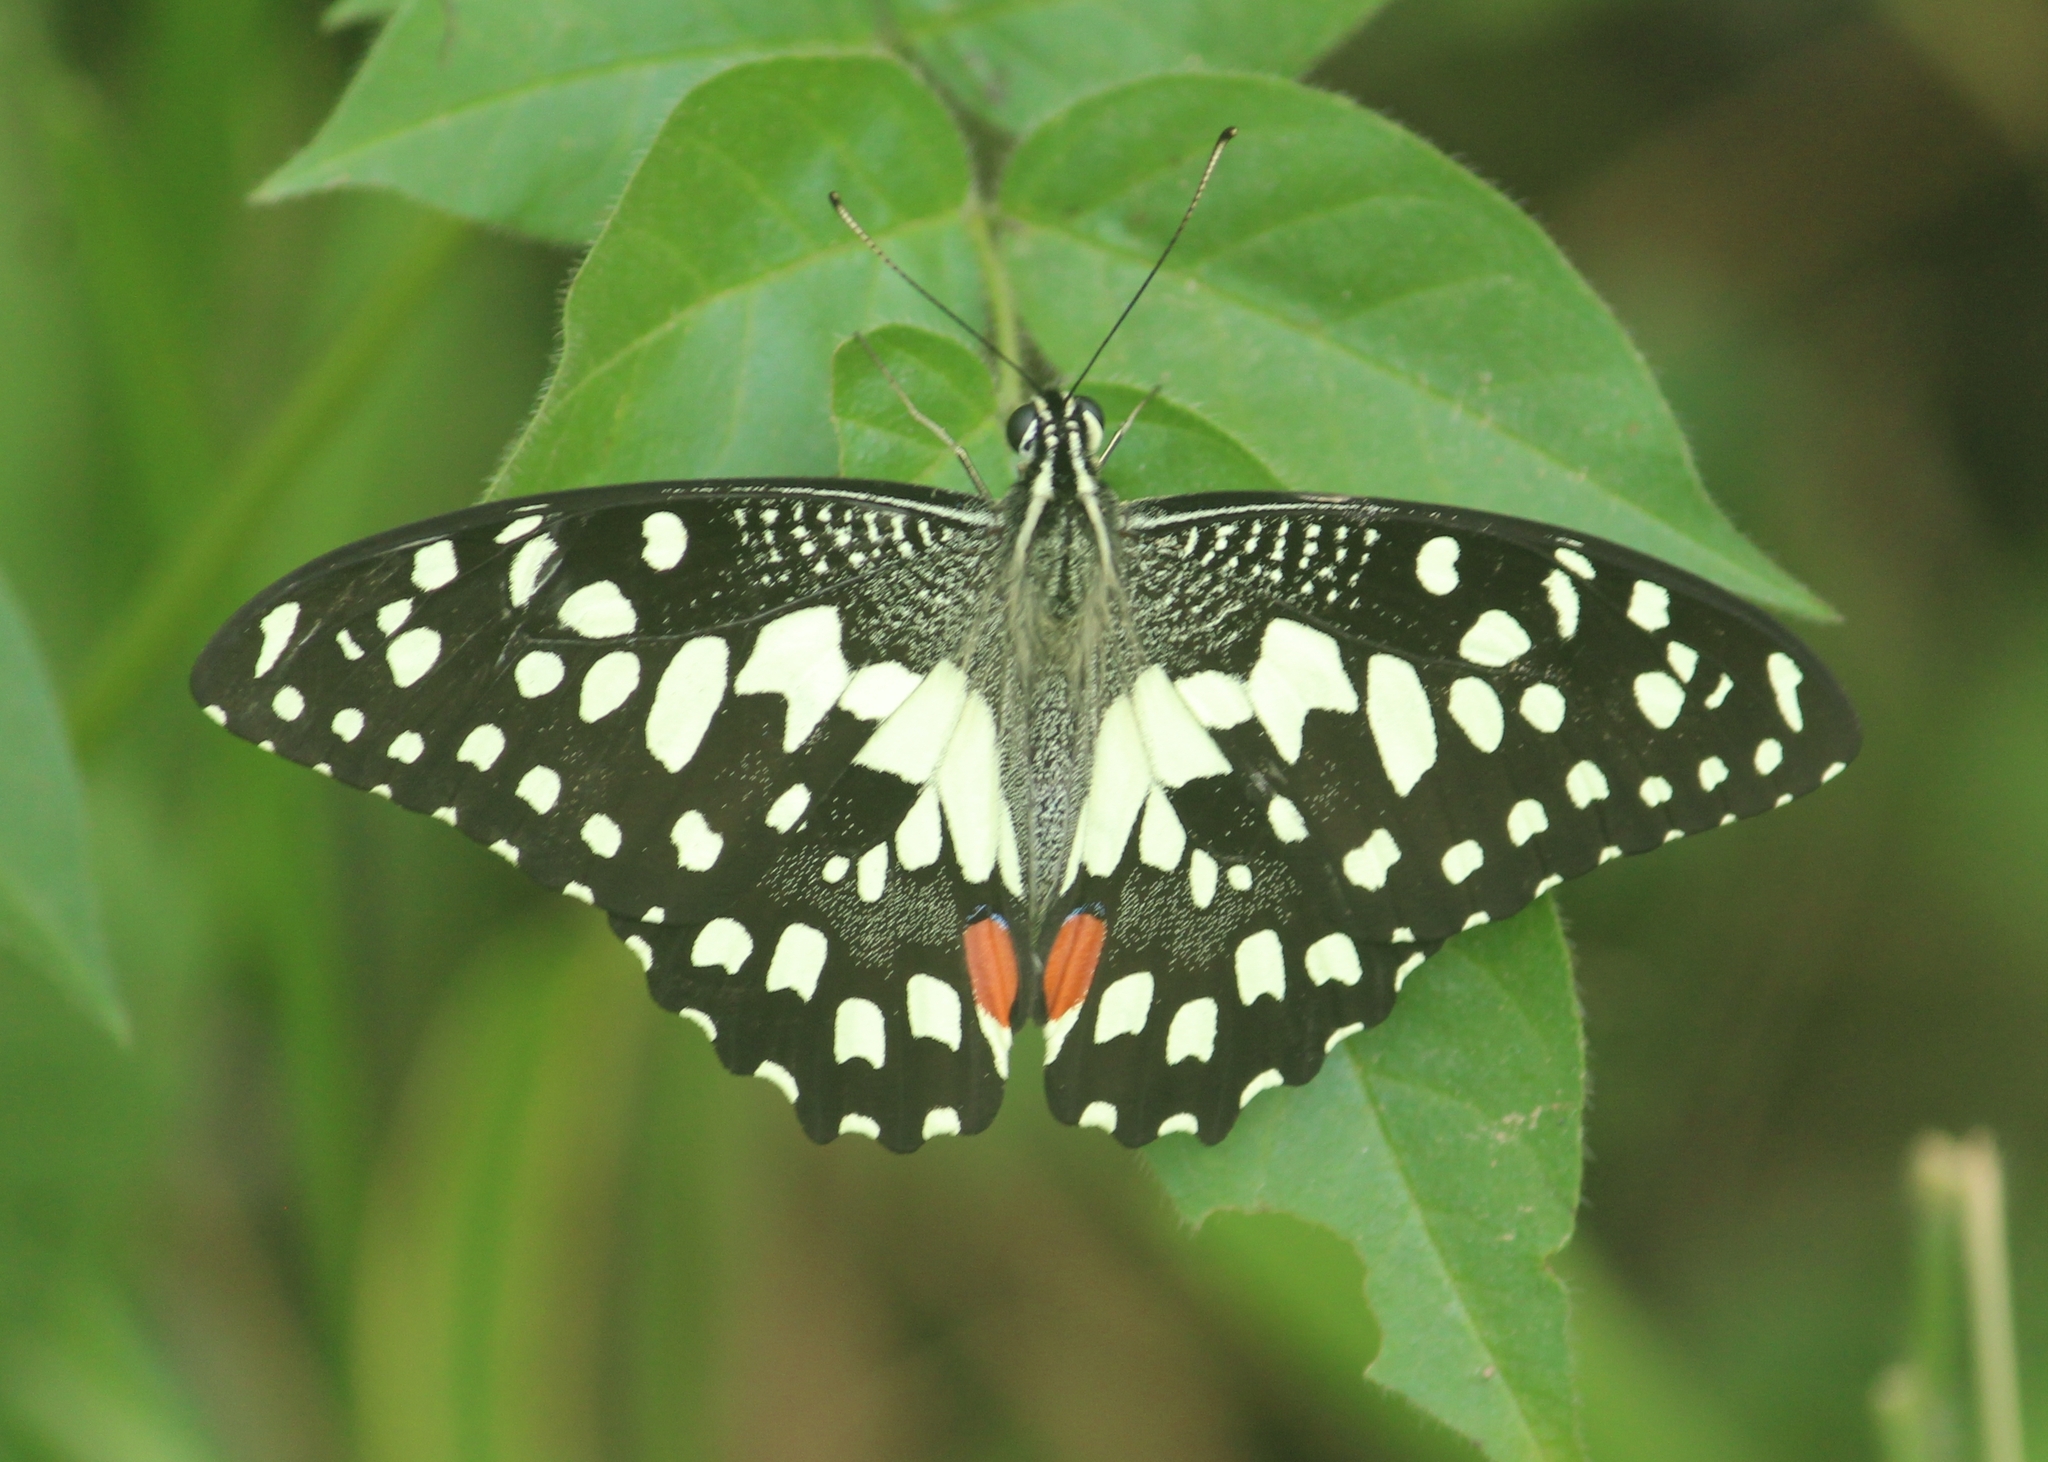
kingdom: Animalia
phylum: Arthropoda
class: Insecta
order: Lepidoptera
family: Papilionidae
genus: Papilio
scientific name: Papilio demoleus
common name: Lime butterfly
